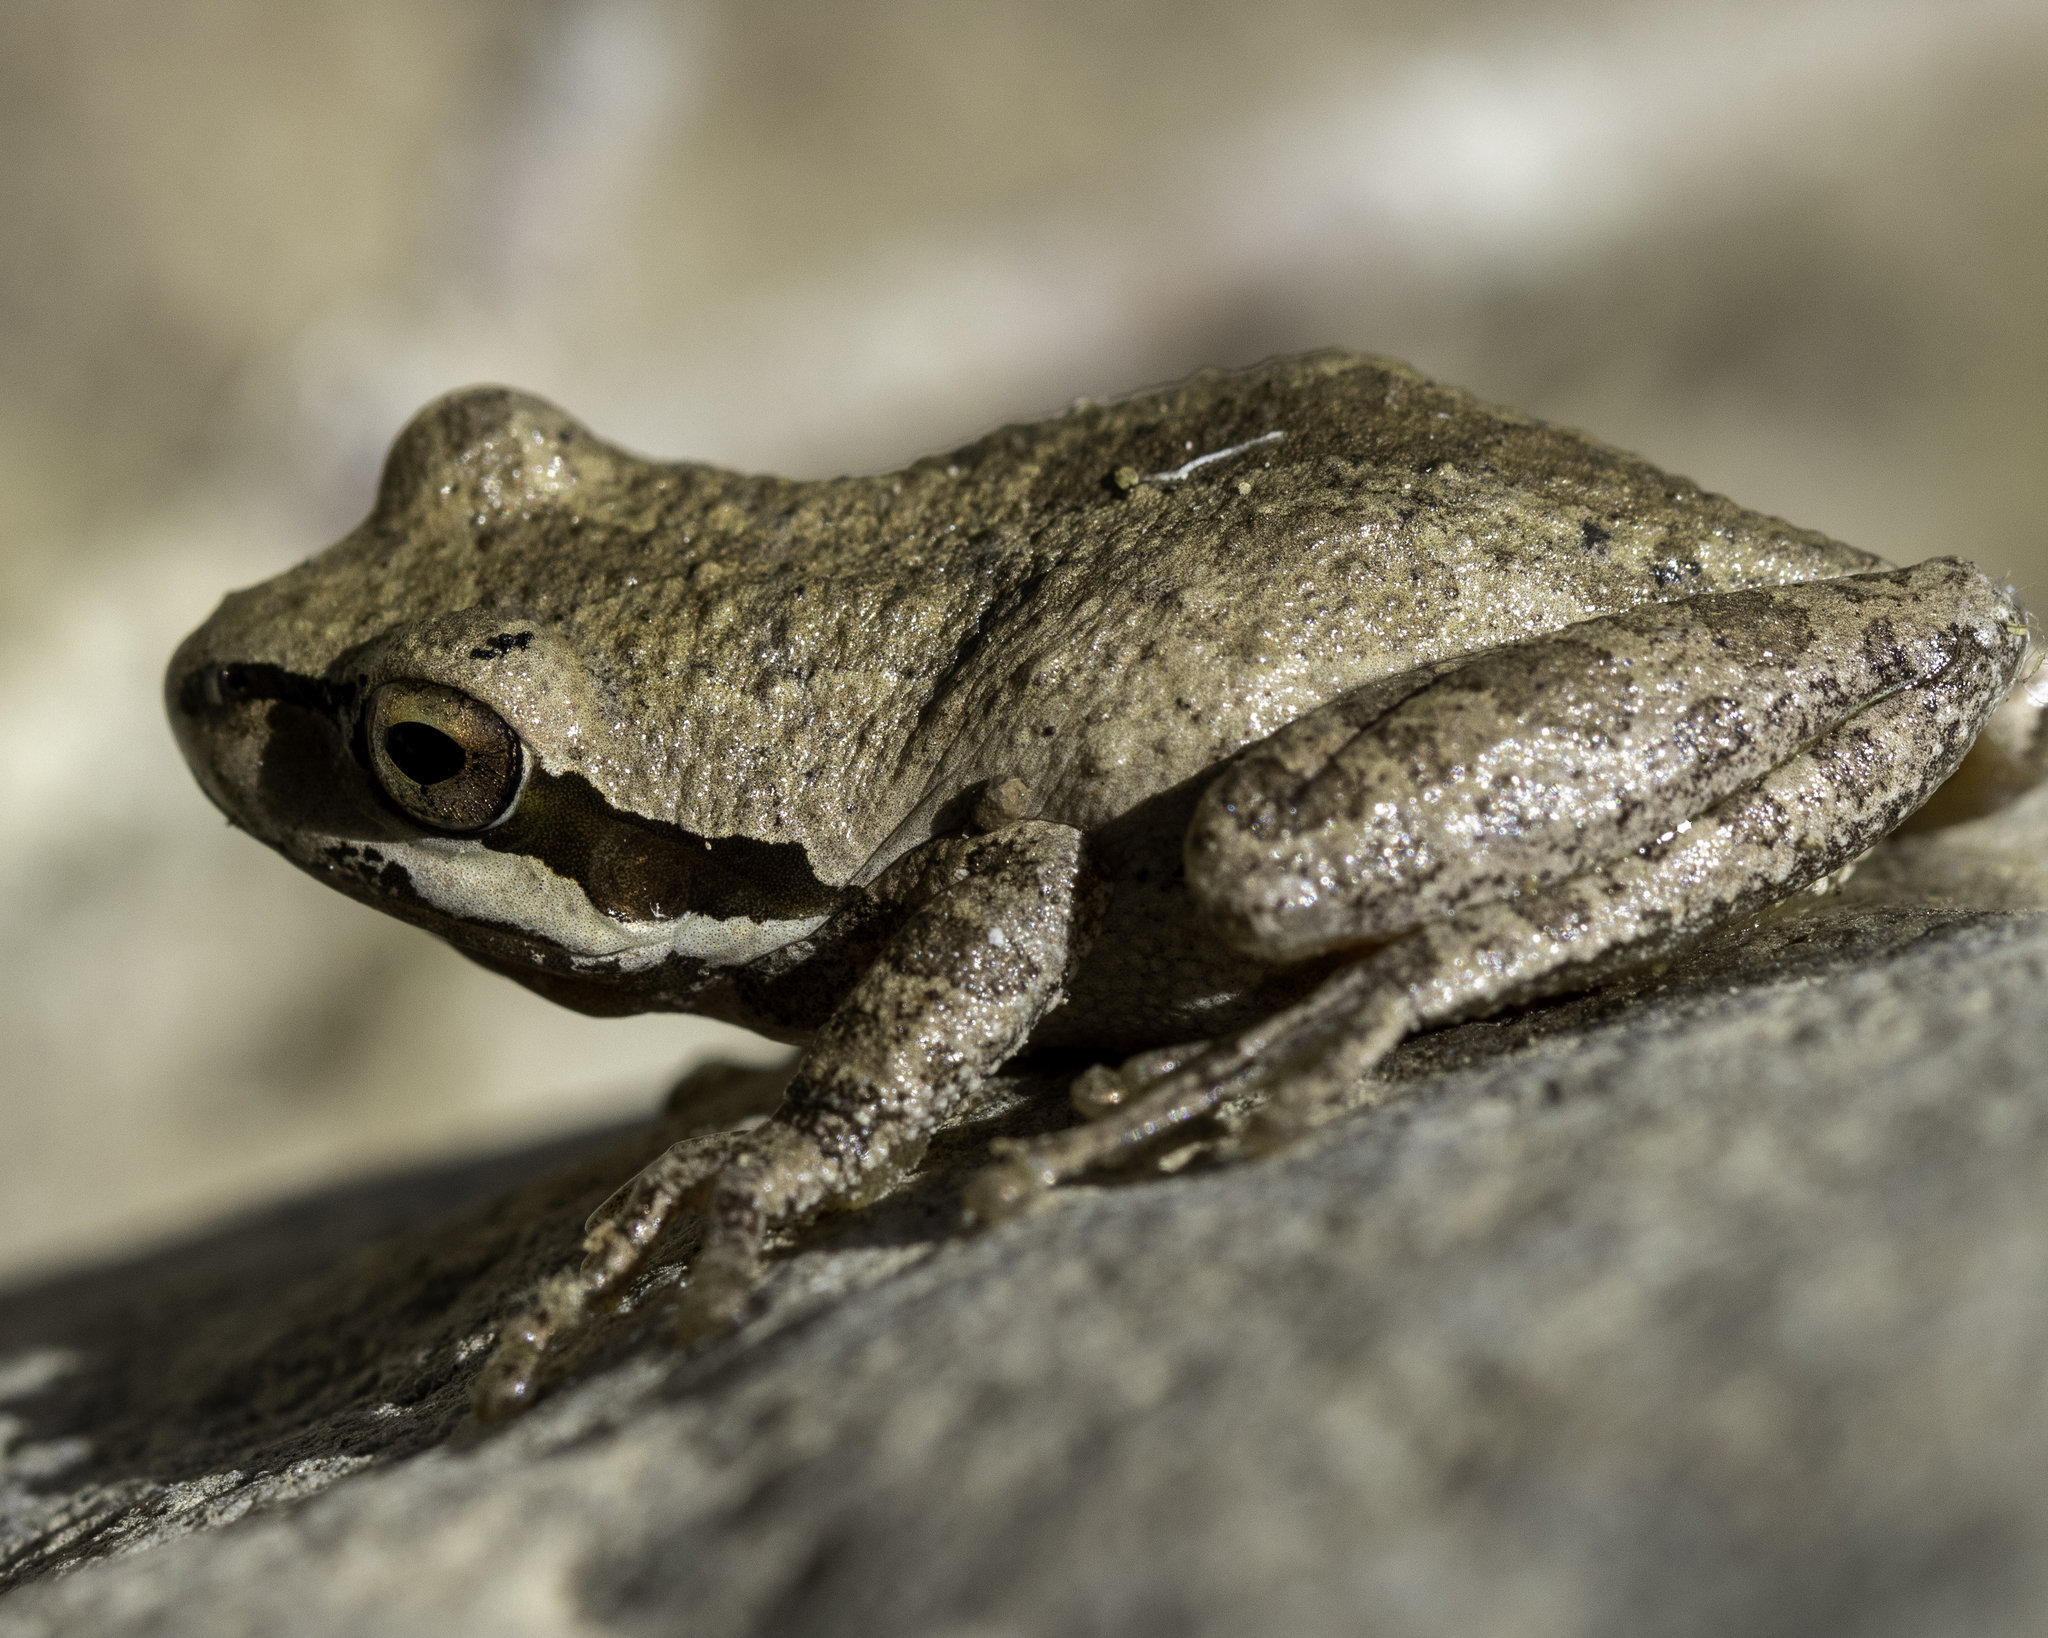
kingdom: Animalia
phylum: Chordata
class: Amphibia
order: Anura
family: Hylidae
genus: Pseudacris
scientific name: Pseudacris regilla
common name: Pacific chorus frog
